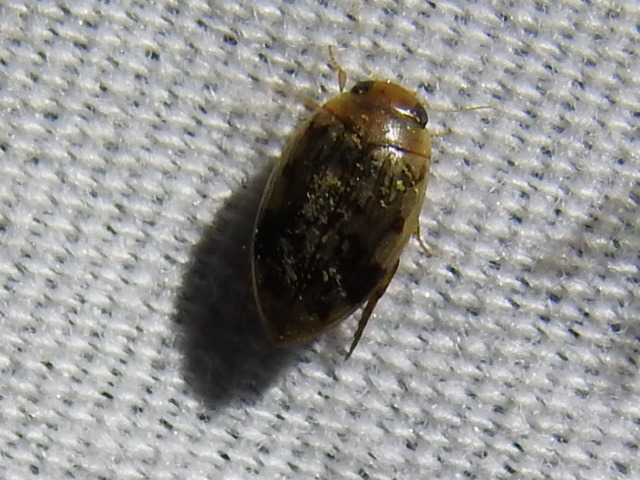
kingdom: Animalia
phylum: Arthropoda
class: Insecta
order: Coleoptera
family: Dytiscidae
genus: Laccophilus
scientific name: Laccophilus fasciatus
